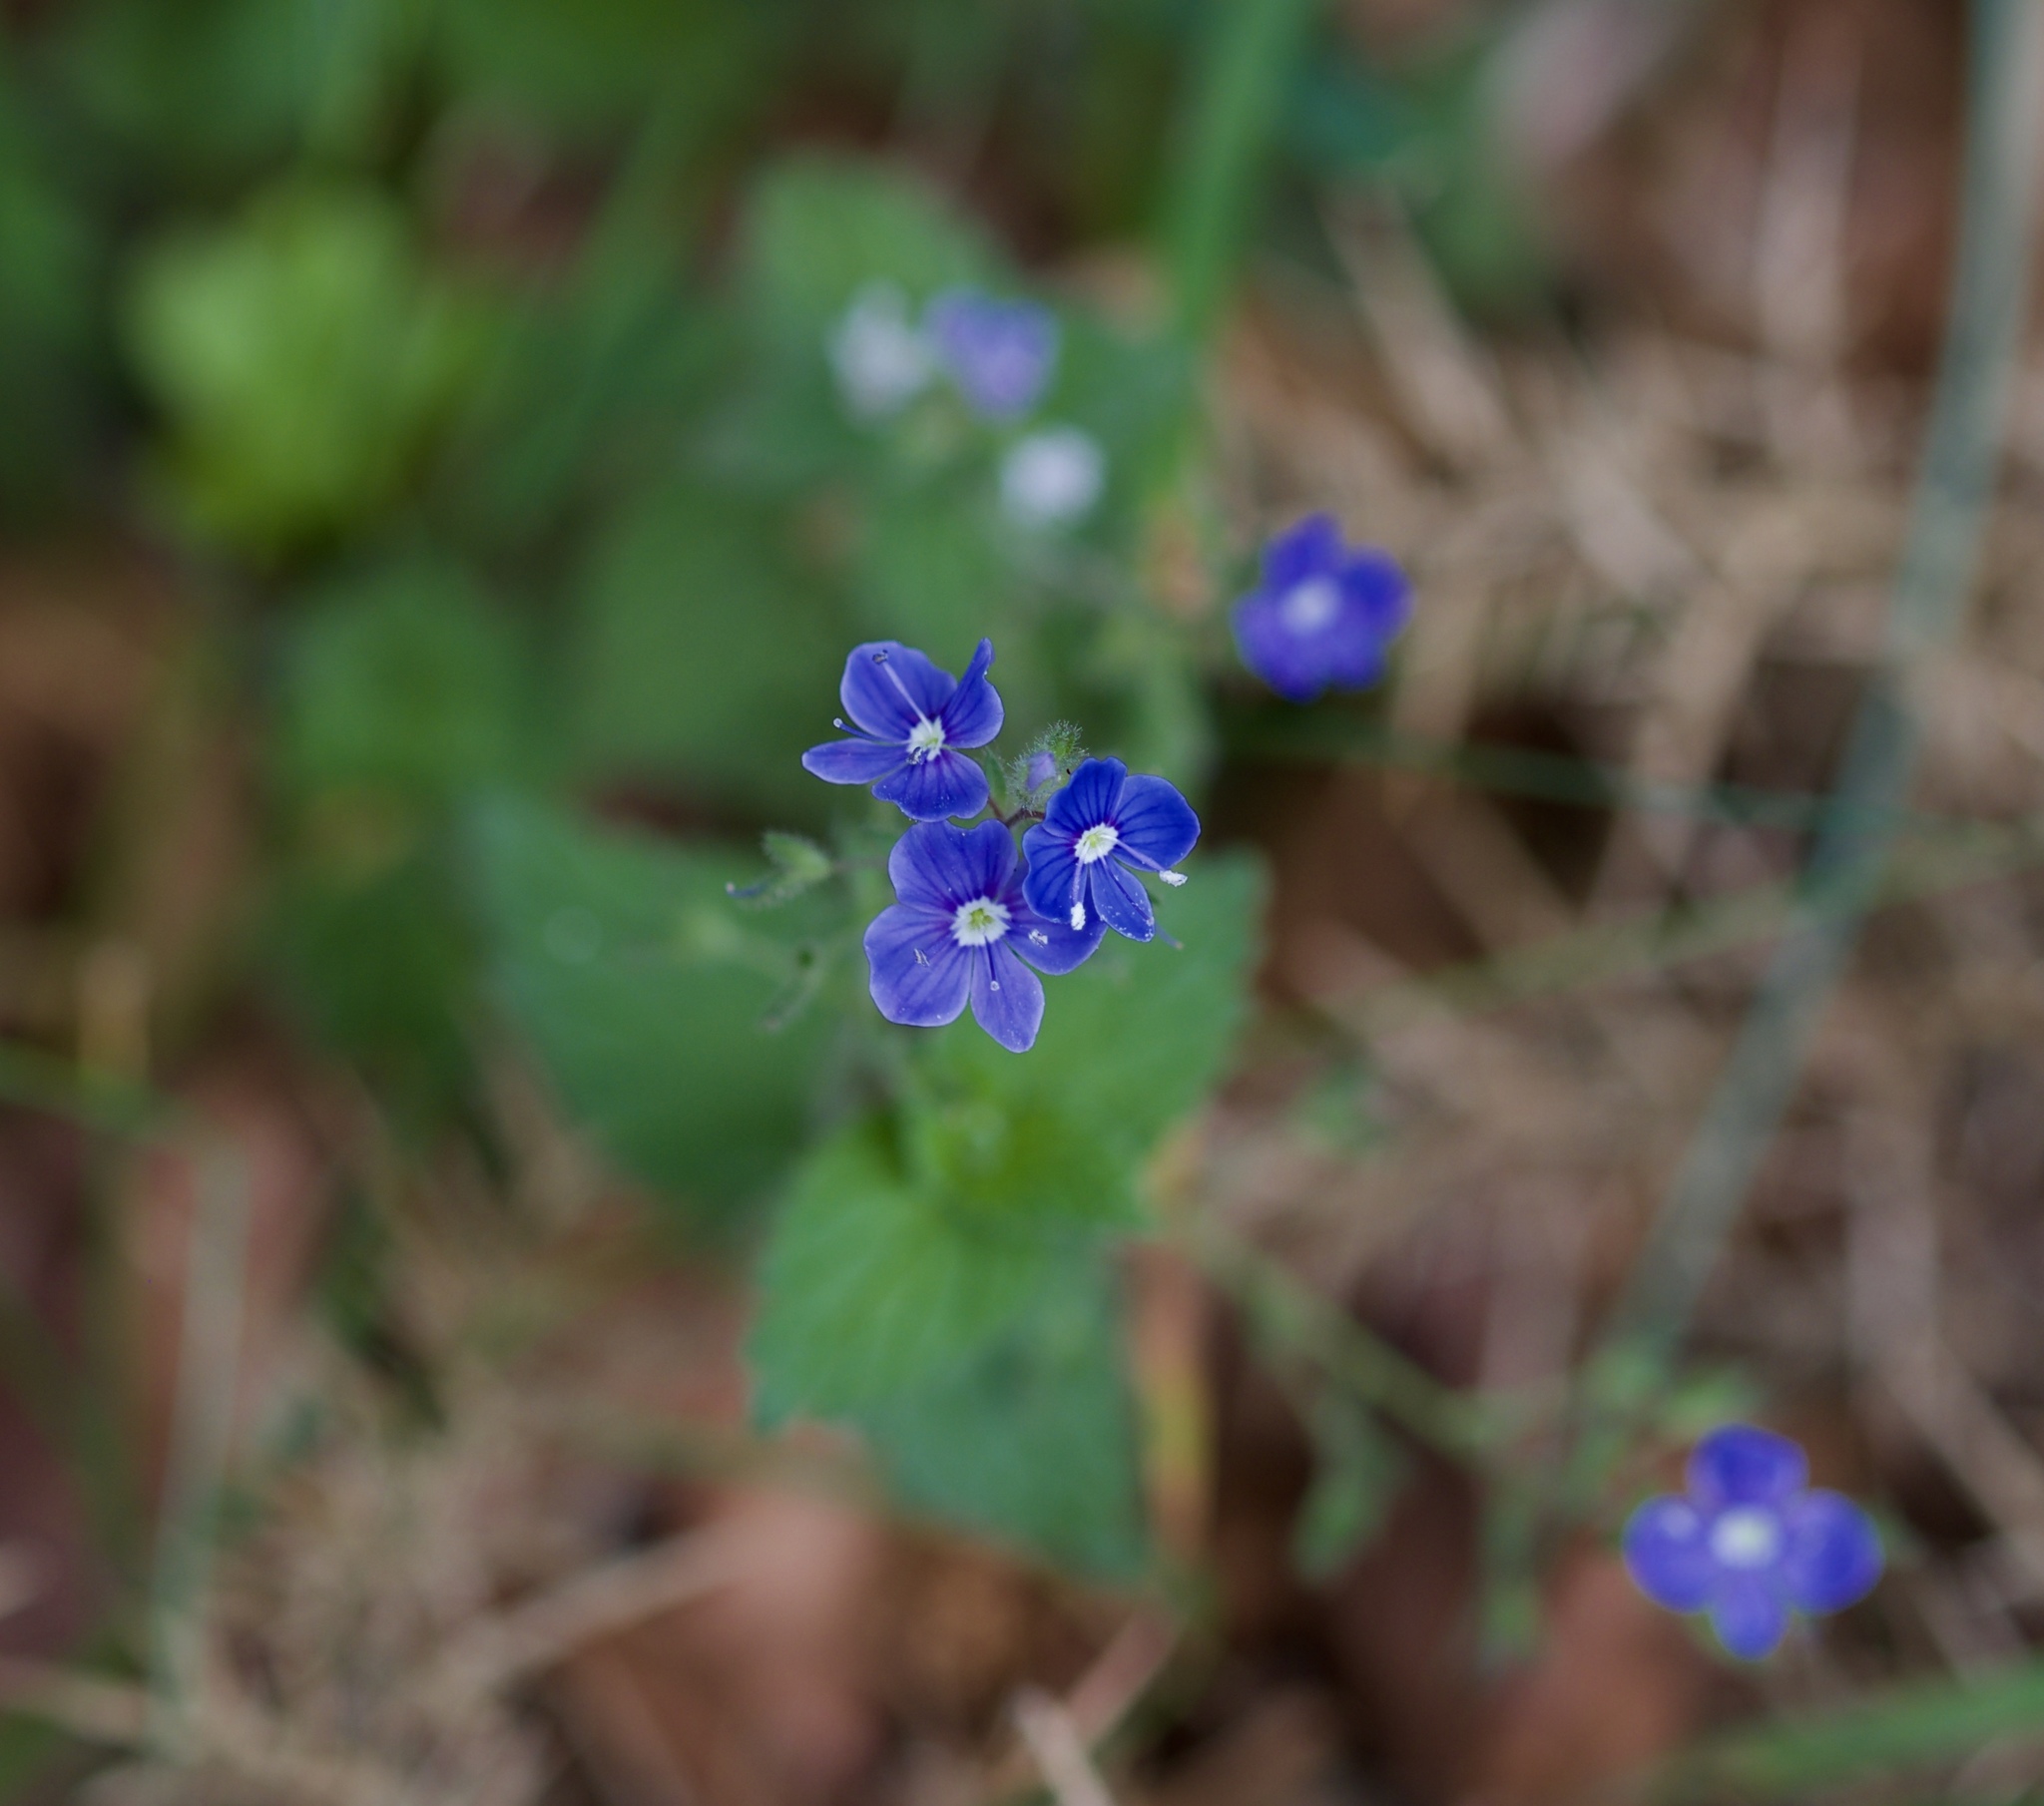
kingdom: Plantae
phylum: Tracheophyta
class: Magnoliopsida
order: Lamiales
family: Plantaginaceae
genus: Veronica
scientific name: Veronica chamaedrys
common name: Germander speedwell
